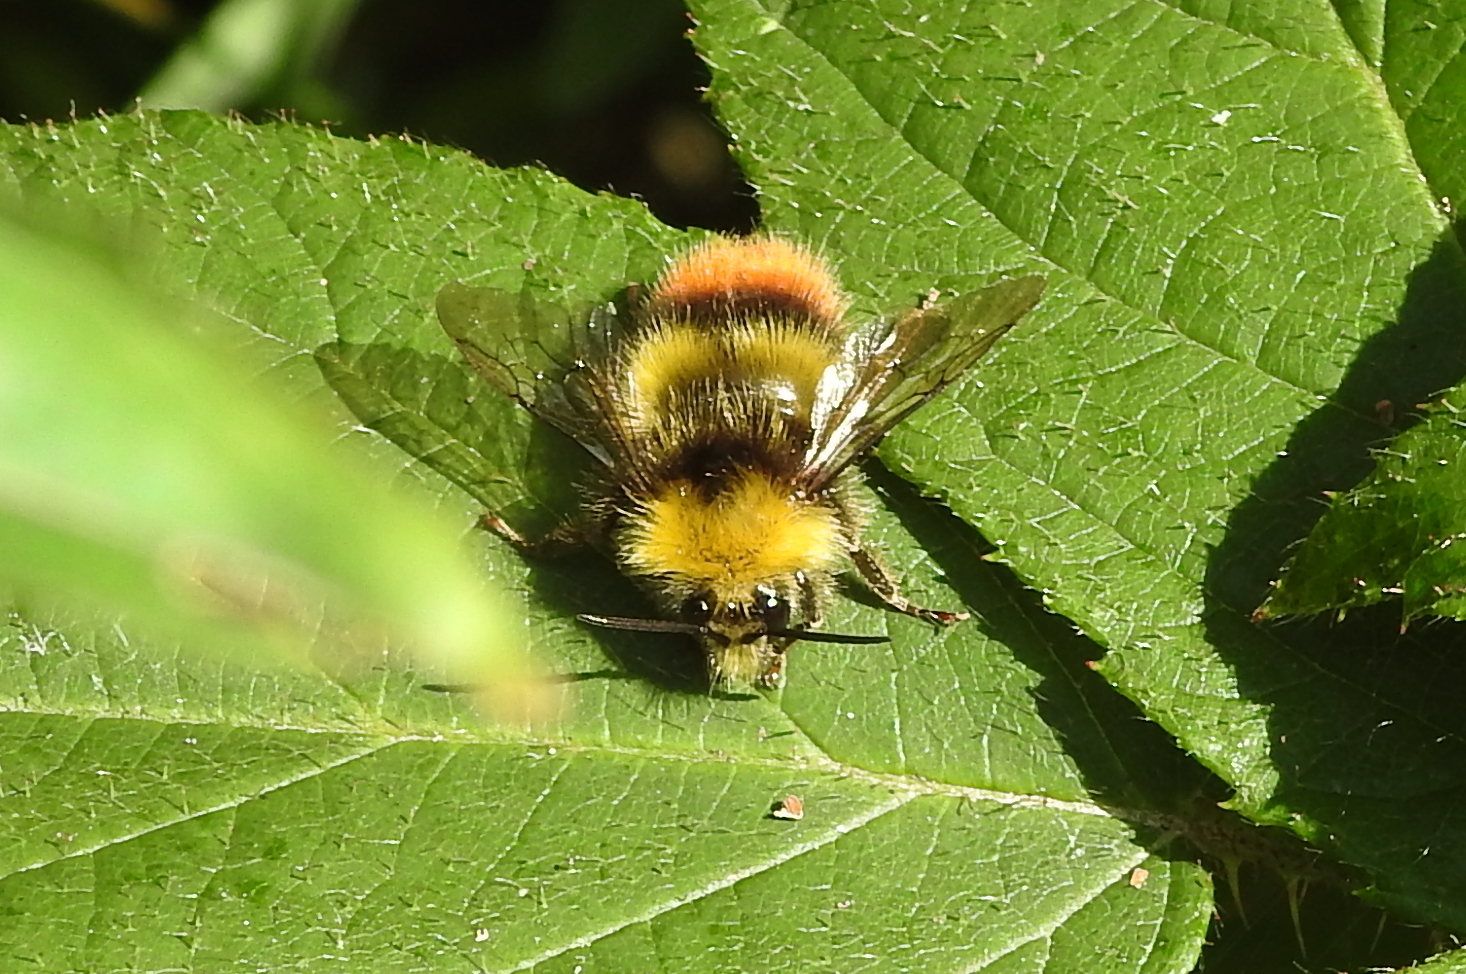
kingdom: Animalia
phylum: Arthropoda
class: Insecta
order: Hymenoptera
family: Apidae
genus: Bombus
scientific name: Bombus pratorum
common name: Early humble-bee
